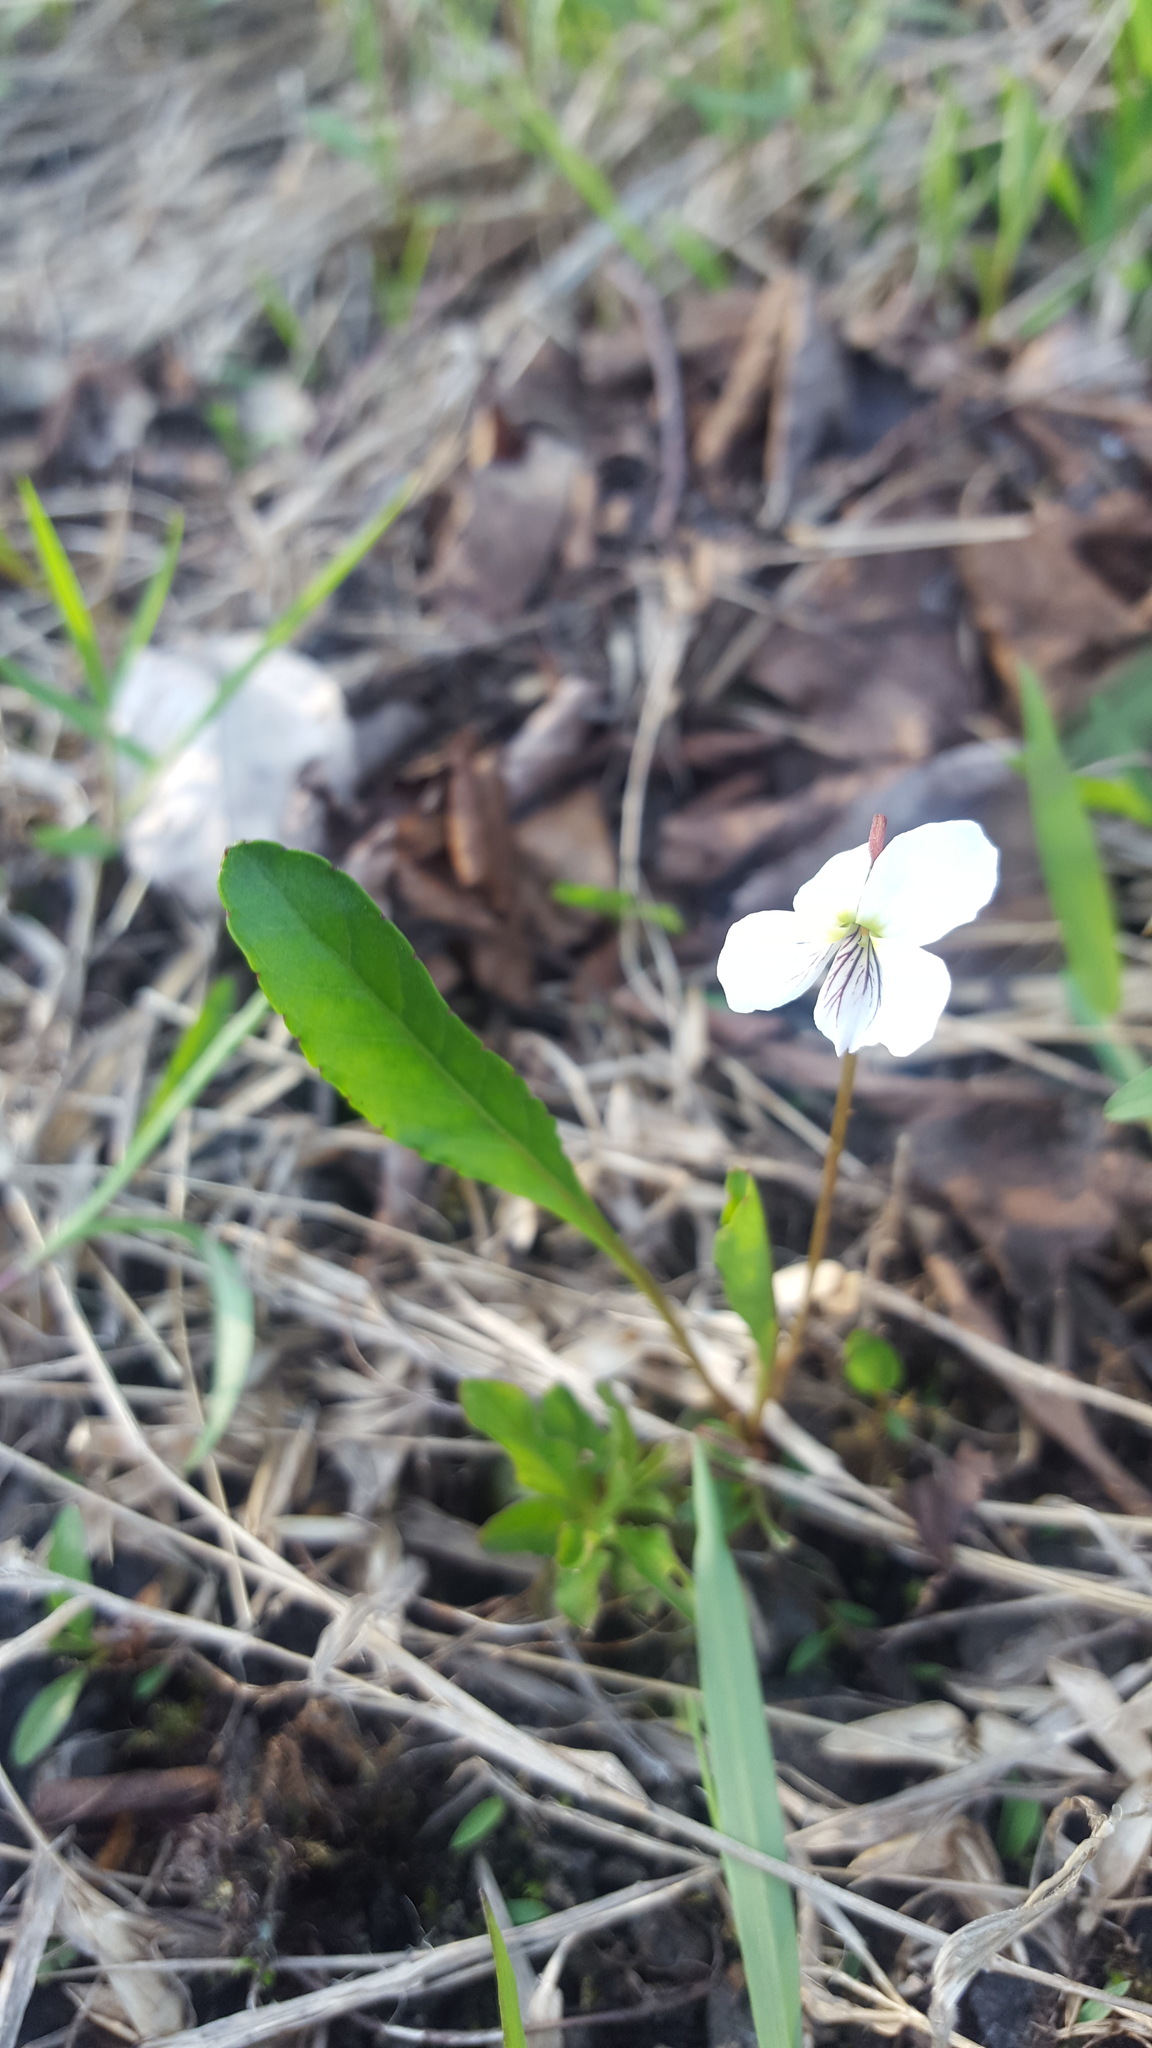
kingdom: Plantae
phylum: Tracheophyta
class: Magnoliopsida
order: Malpighiales
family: Violaceae
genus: Viola
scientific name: Viola lanceolata
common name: Bog white violet
